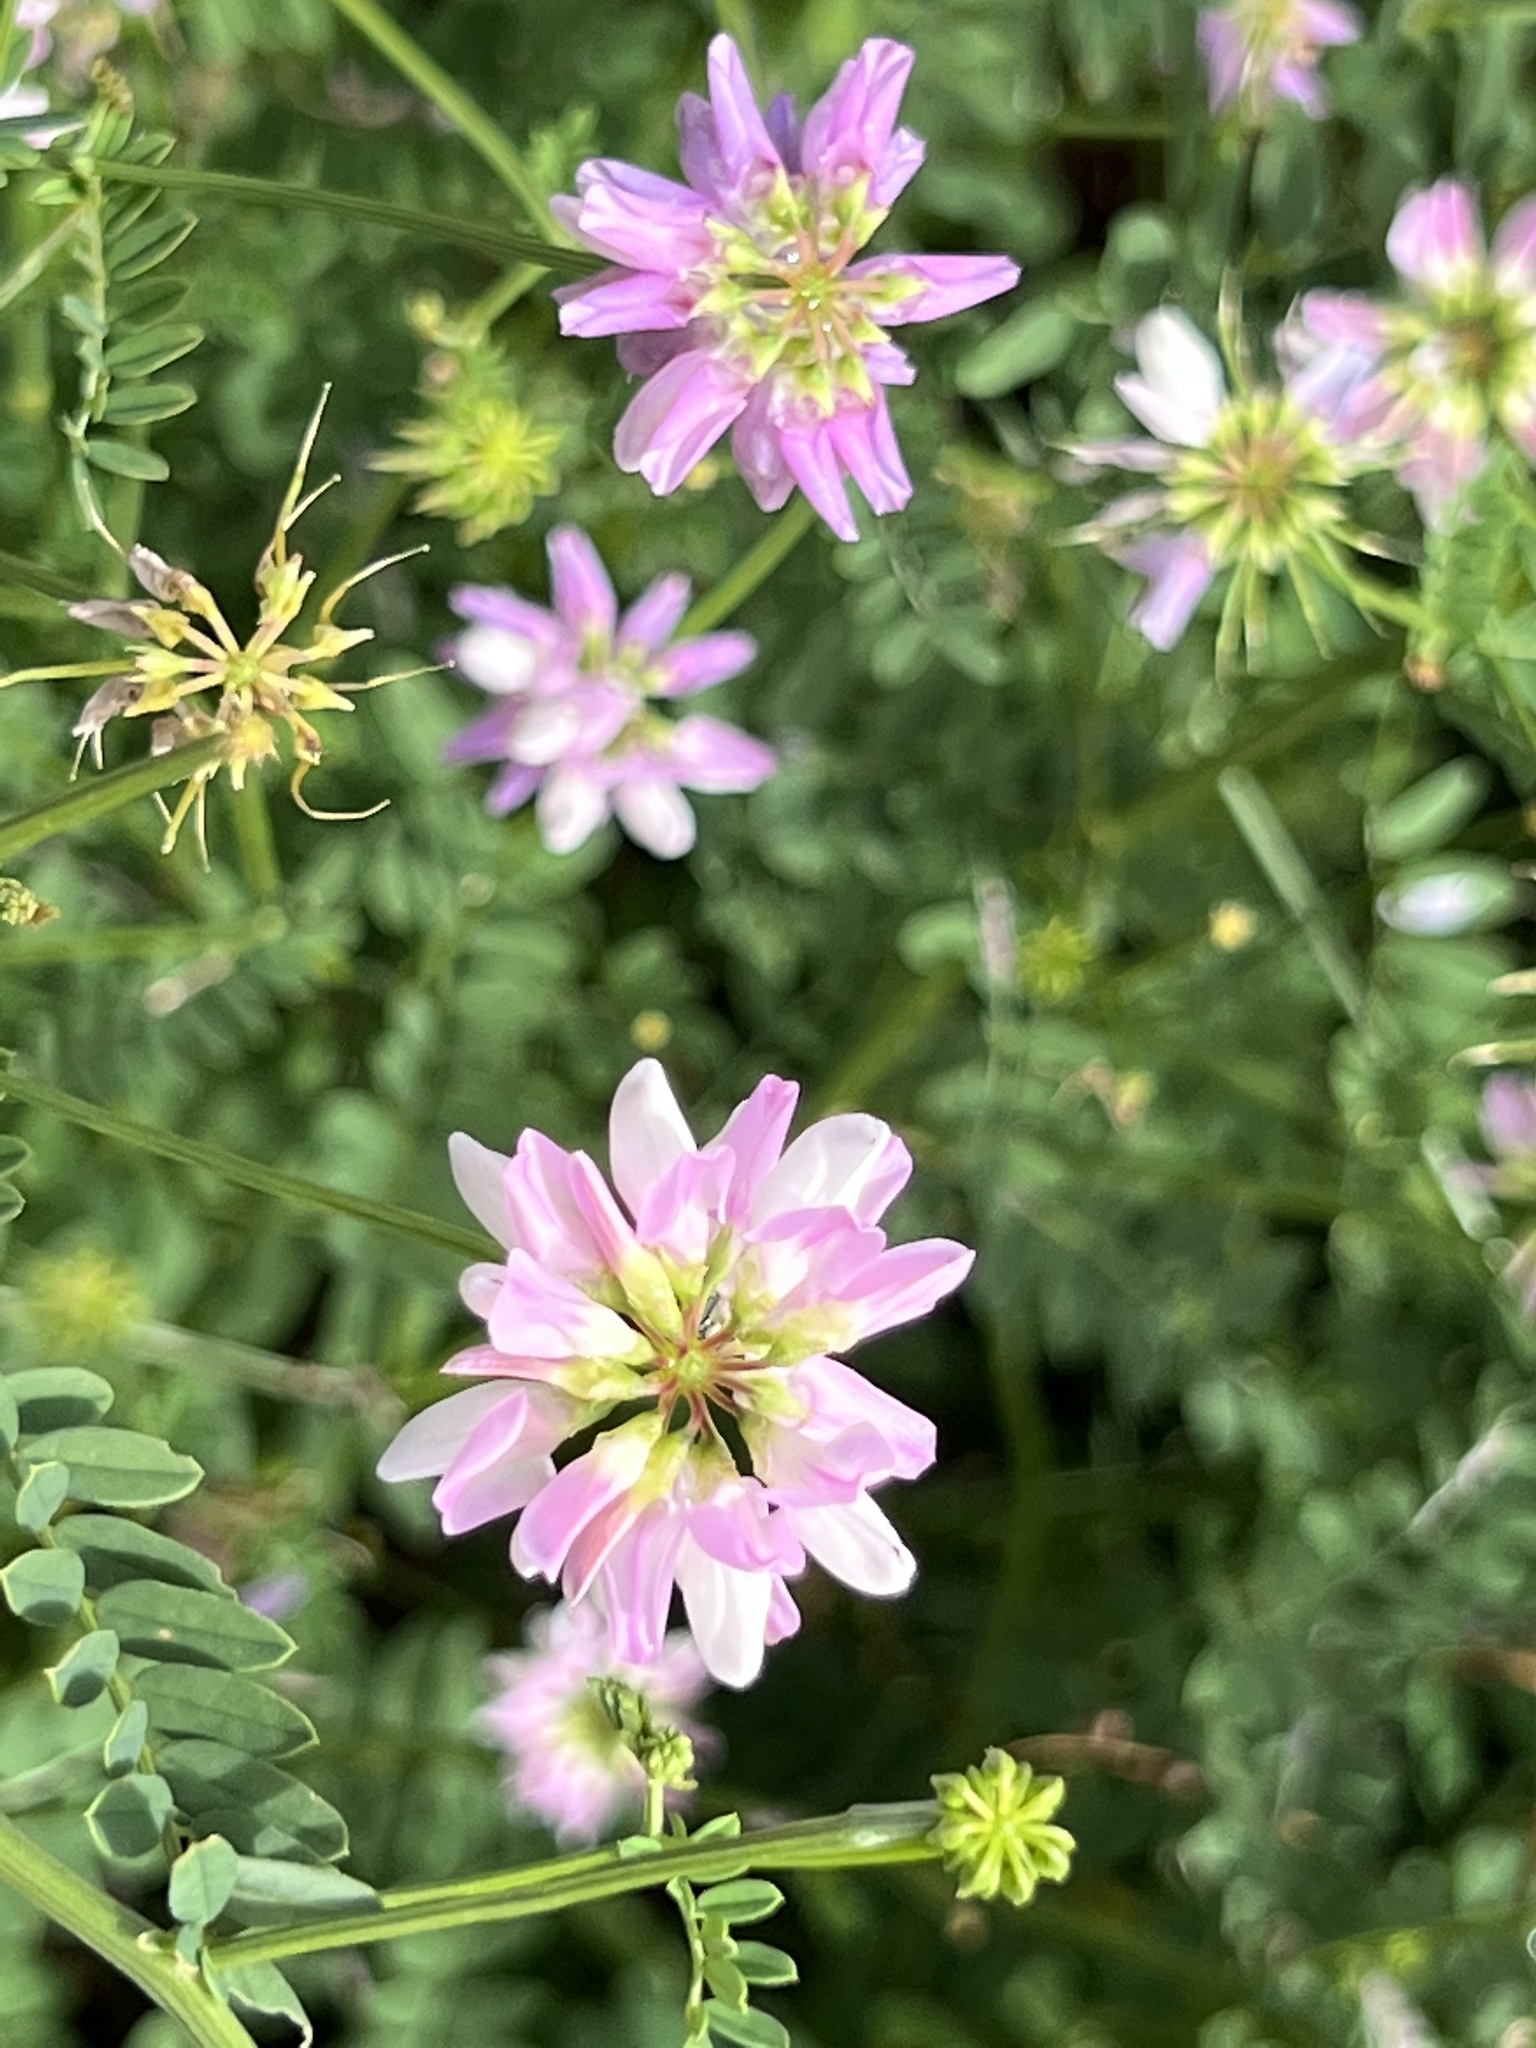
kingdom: Plantae
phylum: Tracheophyta
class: Magnoliopsida
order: Fabales
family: Fabaceae
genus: Coronilla
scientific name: Coronilla varia
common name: Crownvetch
